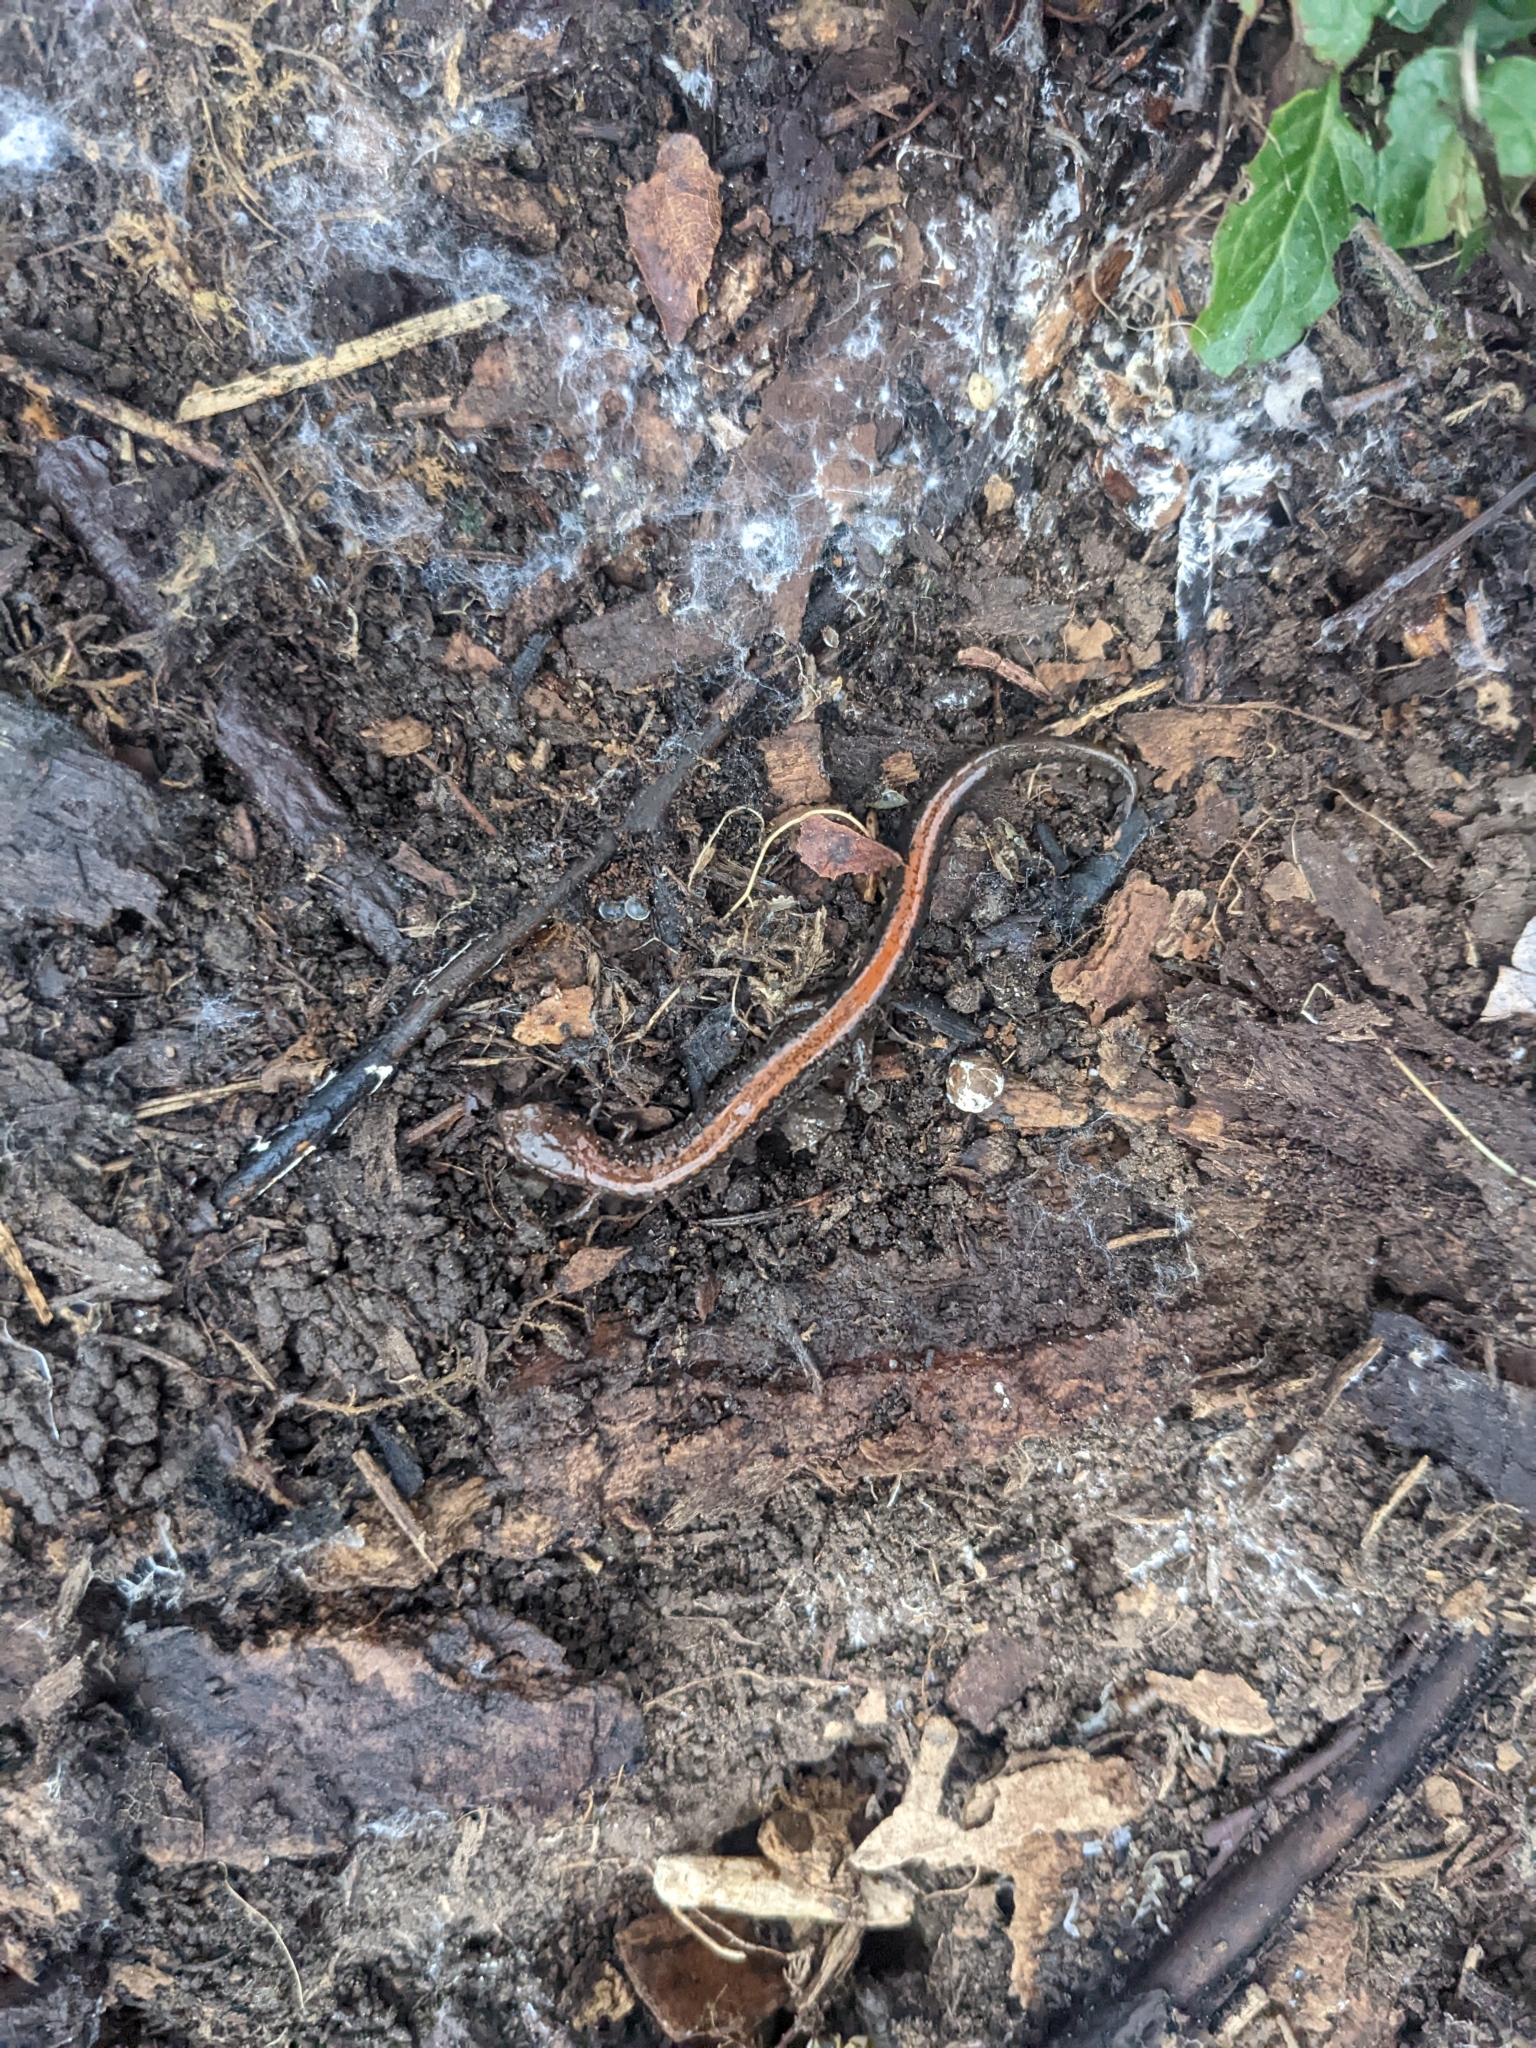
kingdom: Animalia
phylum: Chordata
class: Amphibia
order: Caudata
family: Plethodontidae
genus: Plethodon
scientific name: Plethodon cinereus
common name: Redback salamander
